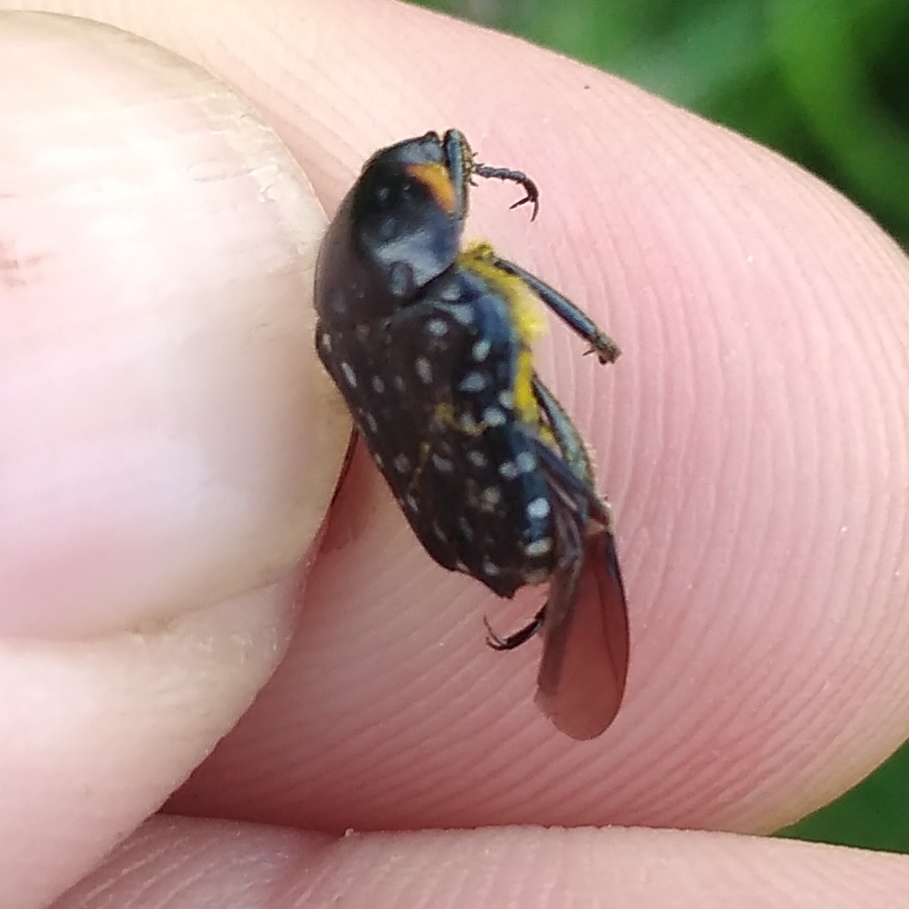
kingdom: Animalia
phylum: Arthropoda
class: Insecta
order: Coleoptera
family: Scarabaeidae
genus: Oxythyrea
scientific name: Oxythyrea
